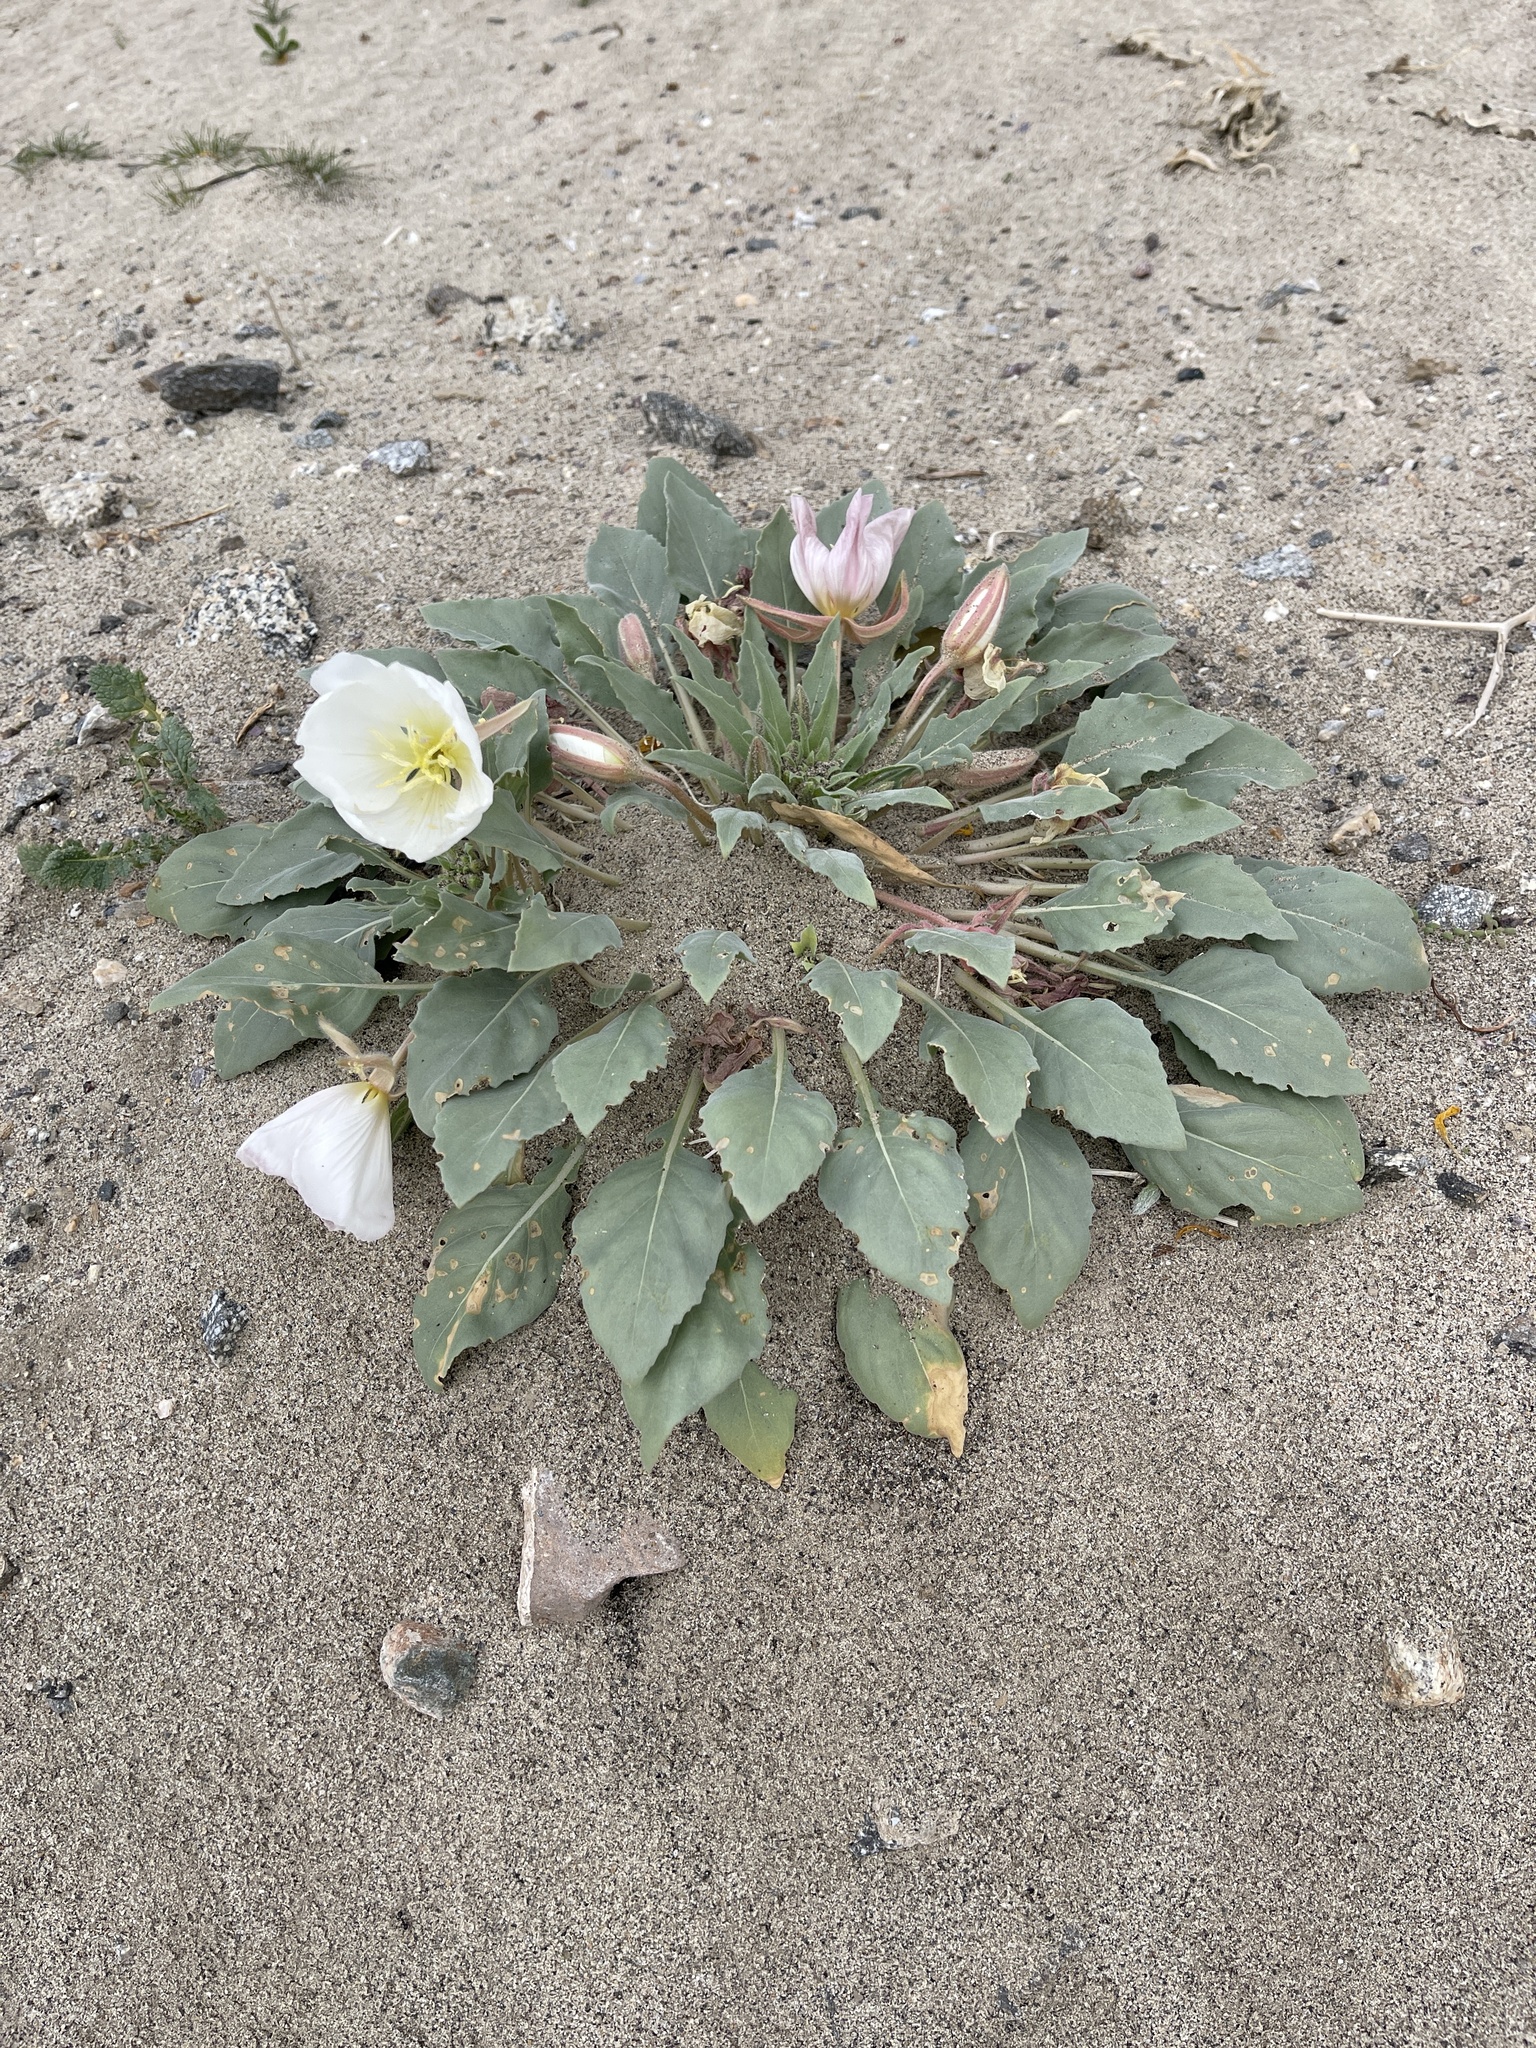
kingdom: Plantae
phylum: Tracheophyta
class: Magnoliopsida
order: Myrtales
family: Onagraceae
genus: Oenothera
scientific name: Oenothera deltoides
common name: Basket evening-primrose
